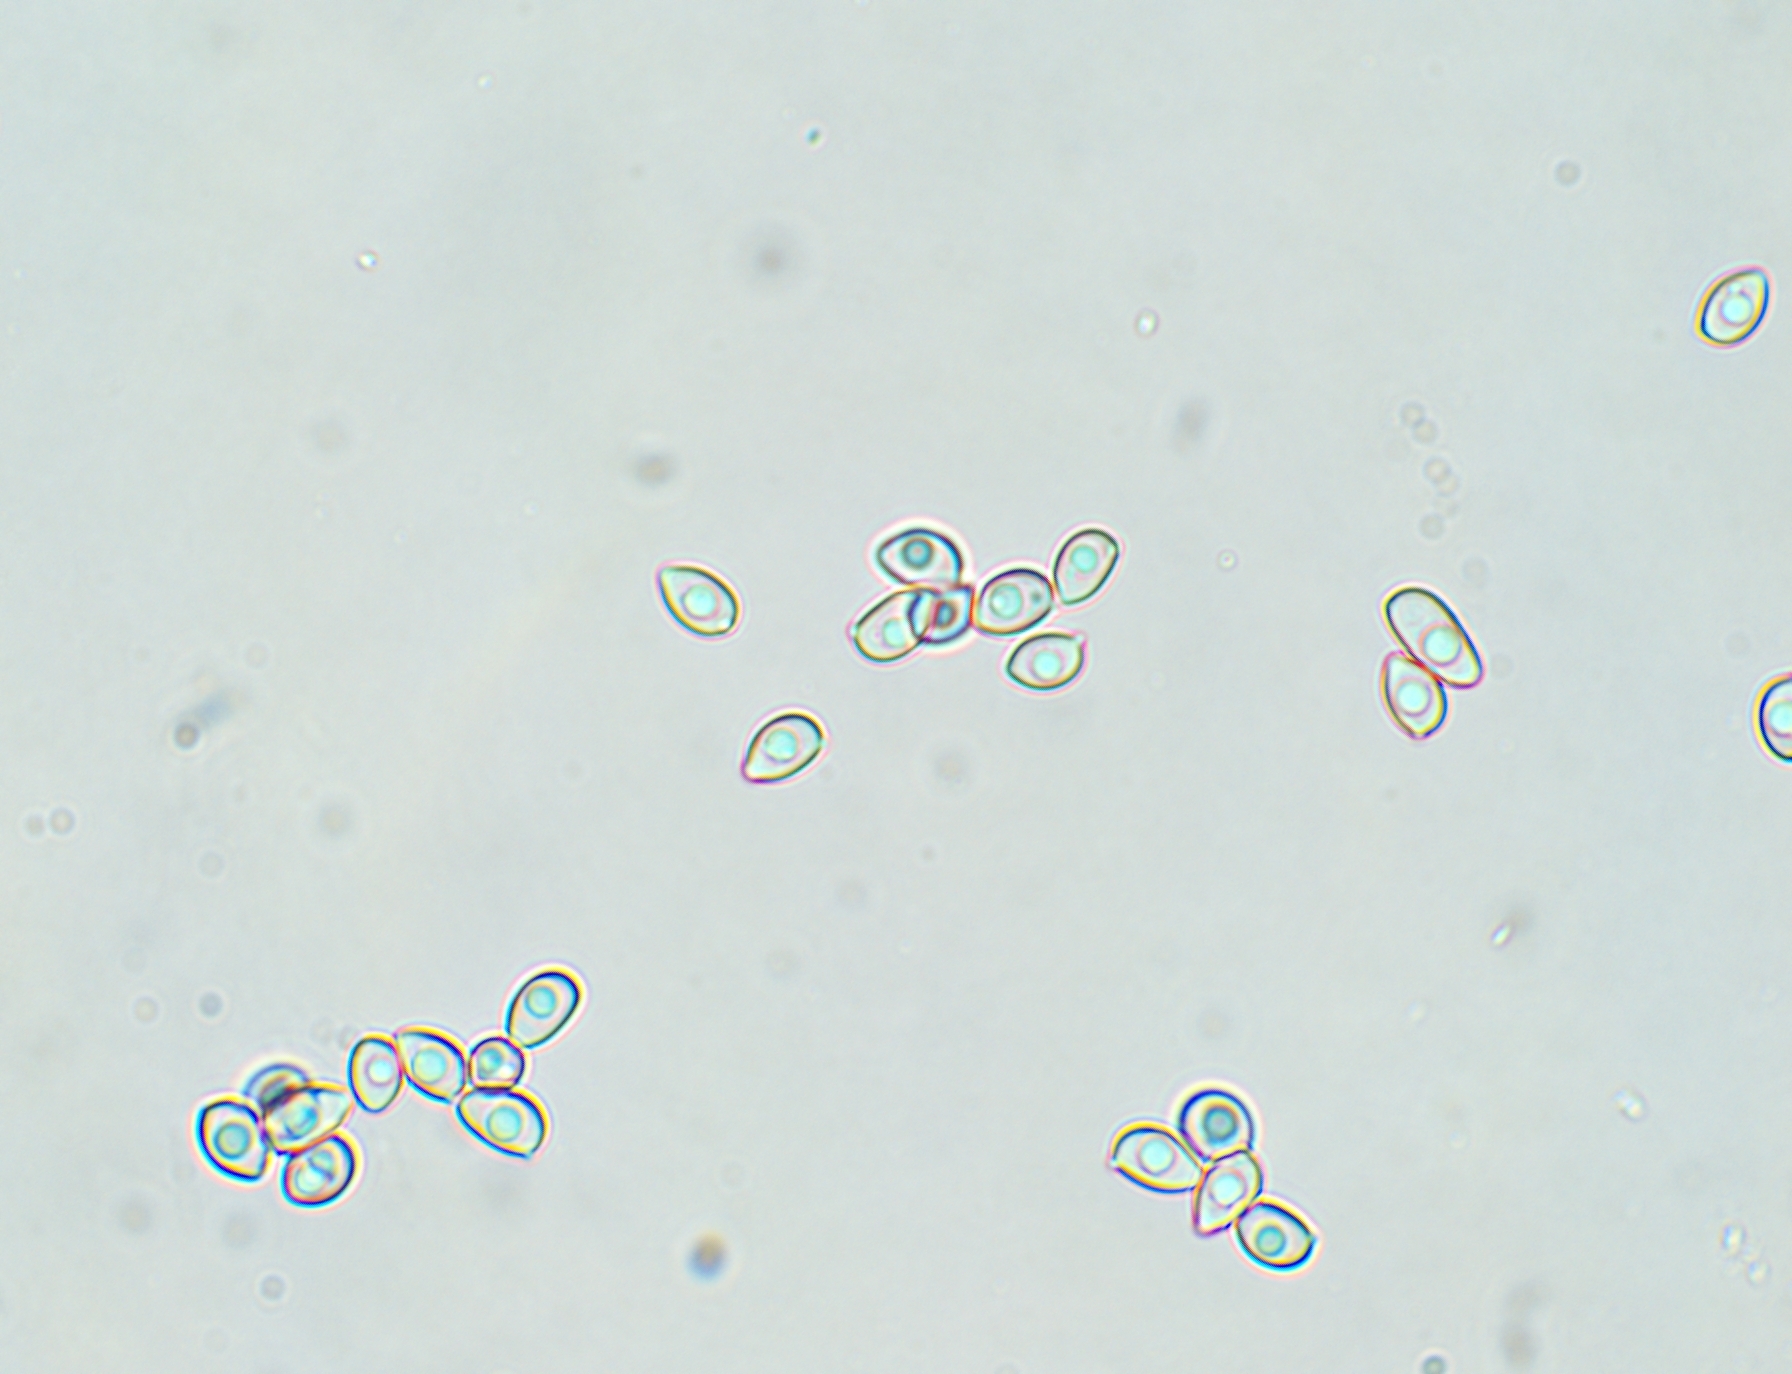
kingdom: Fungi
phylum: Basidiomycota
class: Agaricomycetes
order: Agaricales
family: Agaricaceae
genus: Leucoagaricus
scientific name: Leucoagaricus leucothites
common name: White dapperling
